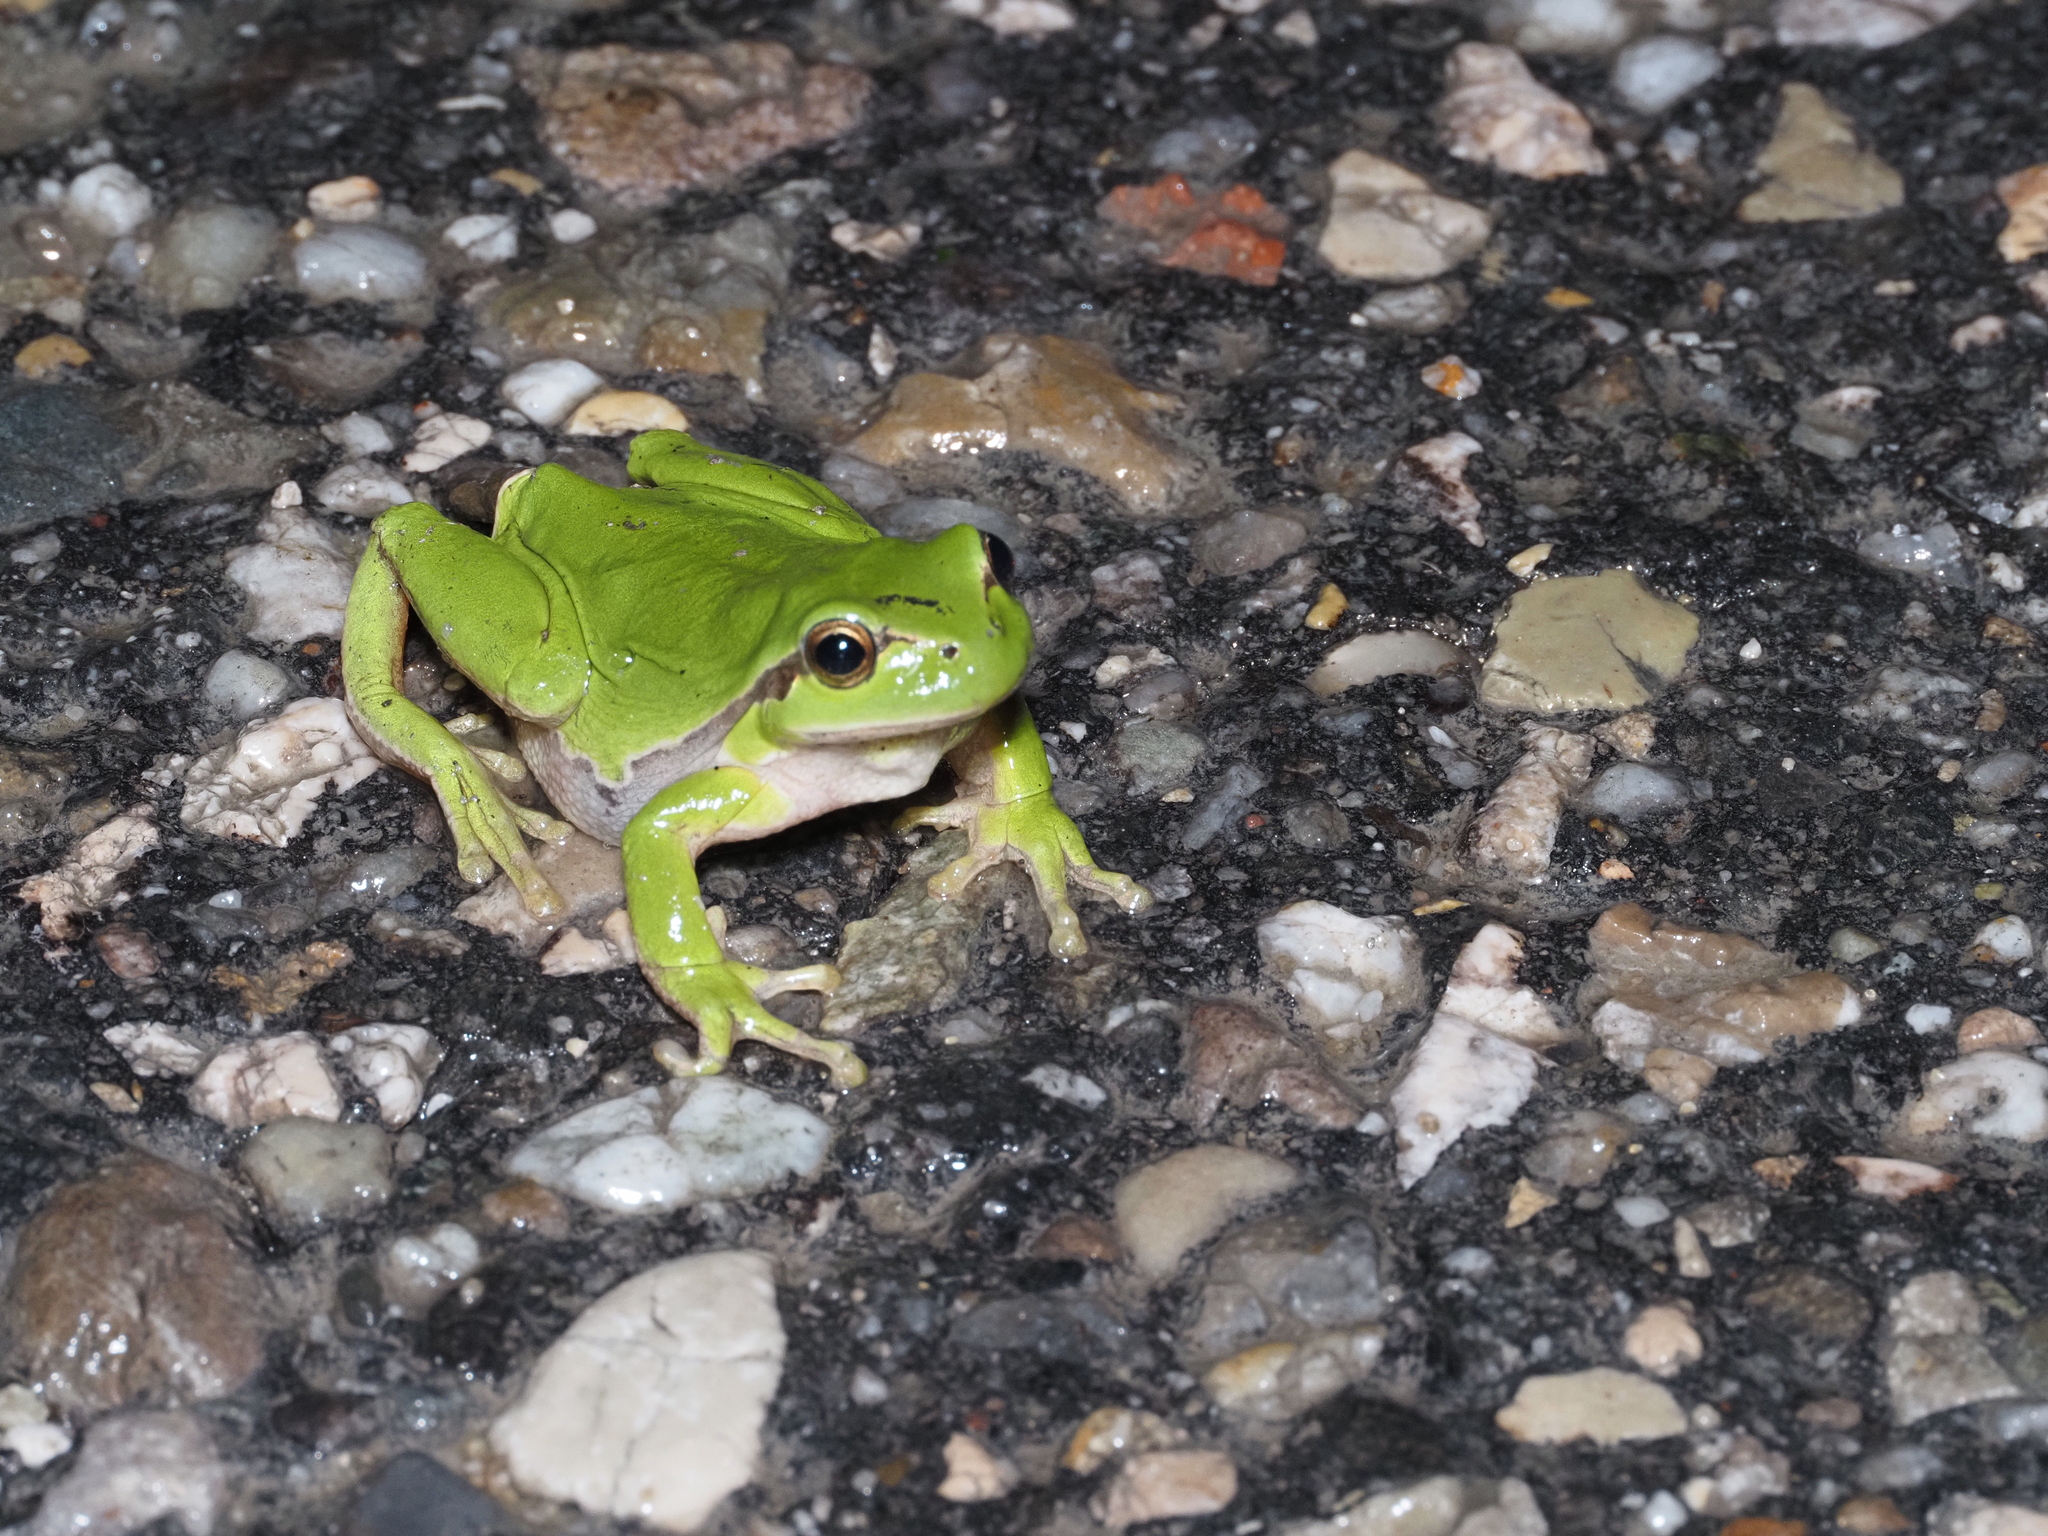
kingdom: Animalia
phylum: Chordata
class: Amphibia
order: Anura
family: Hylidae
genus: Hyla
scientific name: Hyla arborea
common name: Common tree frog
